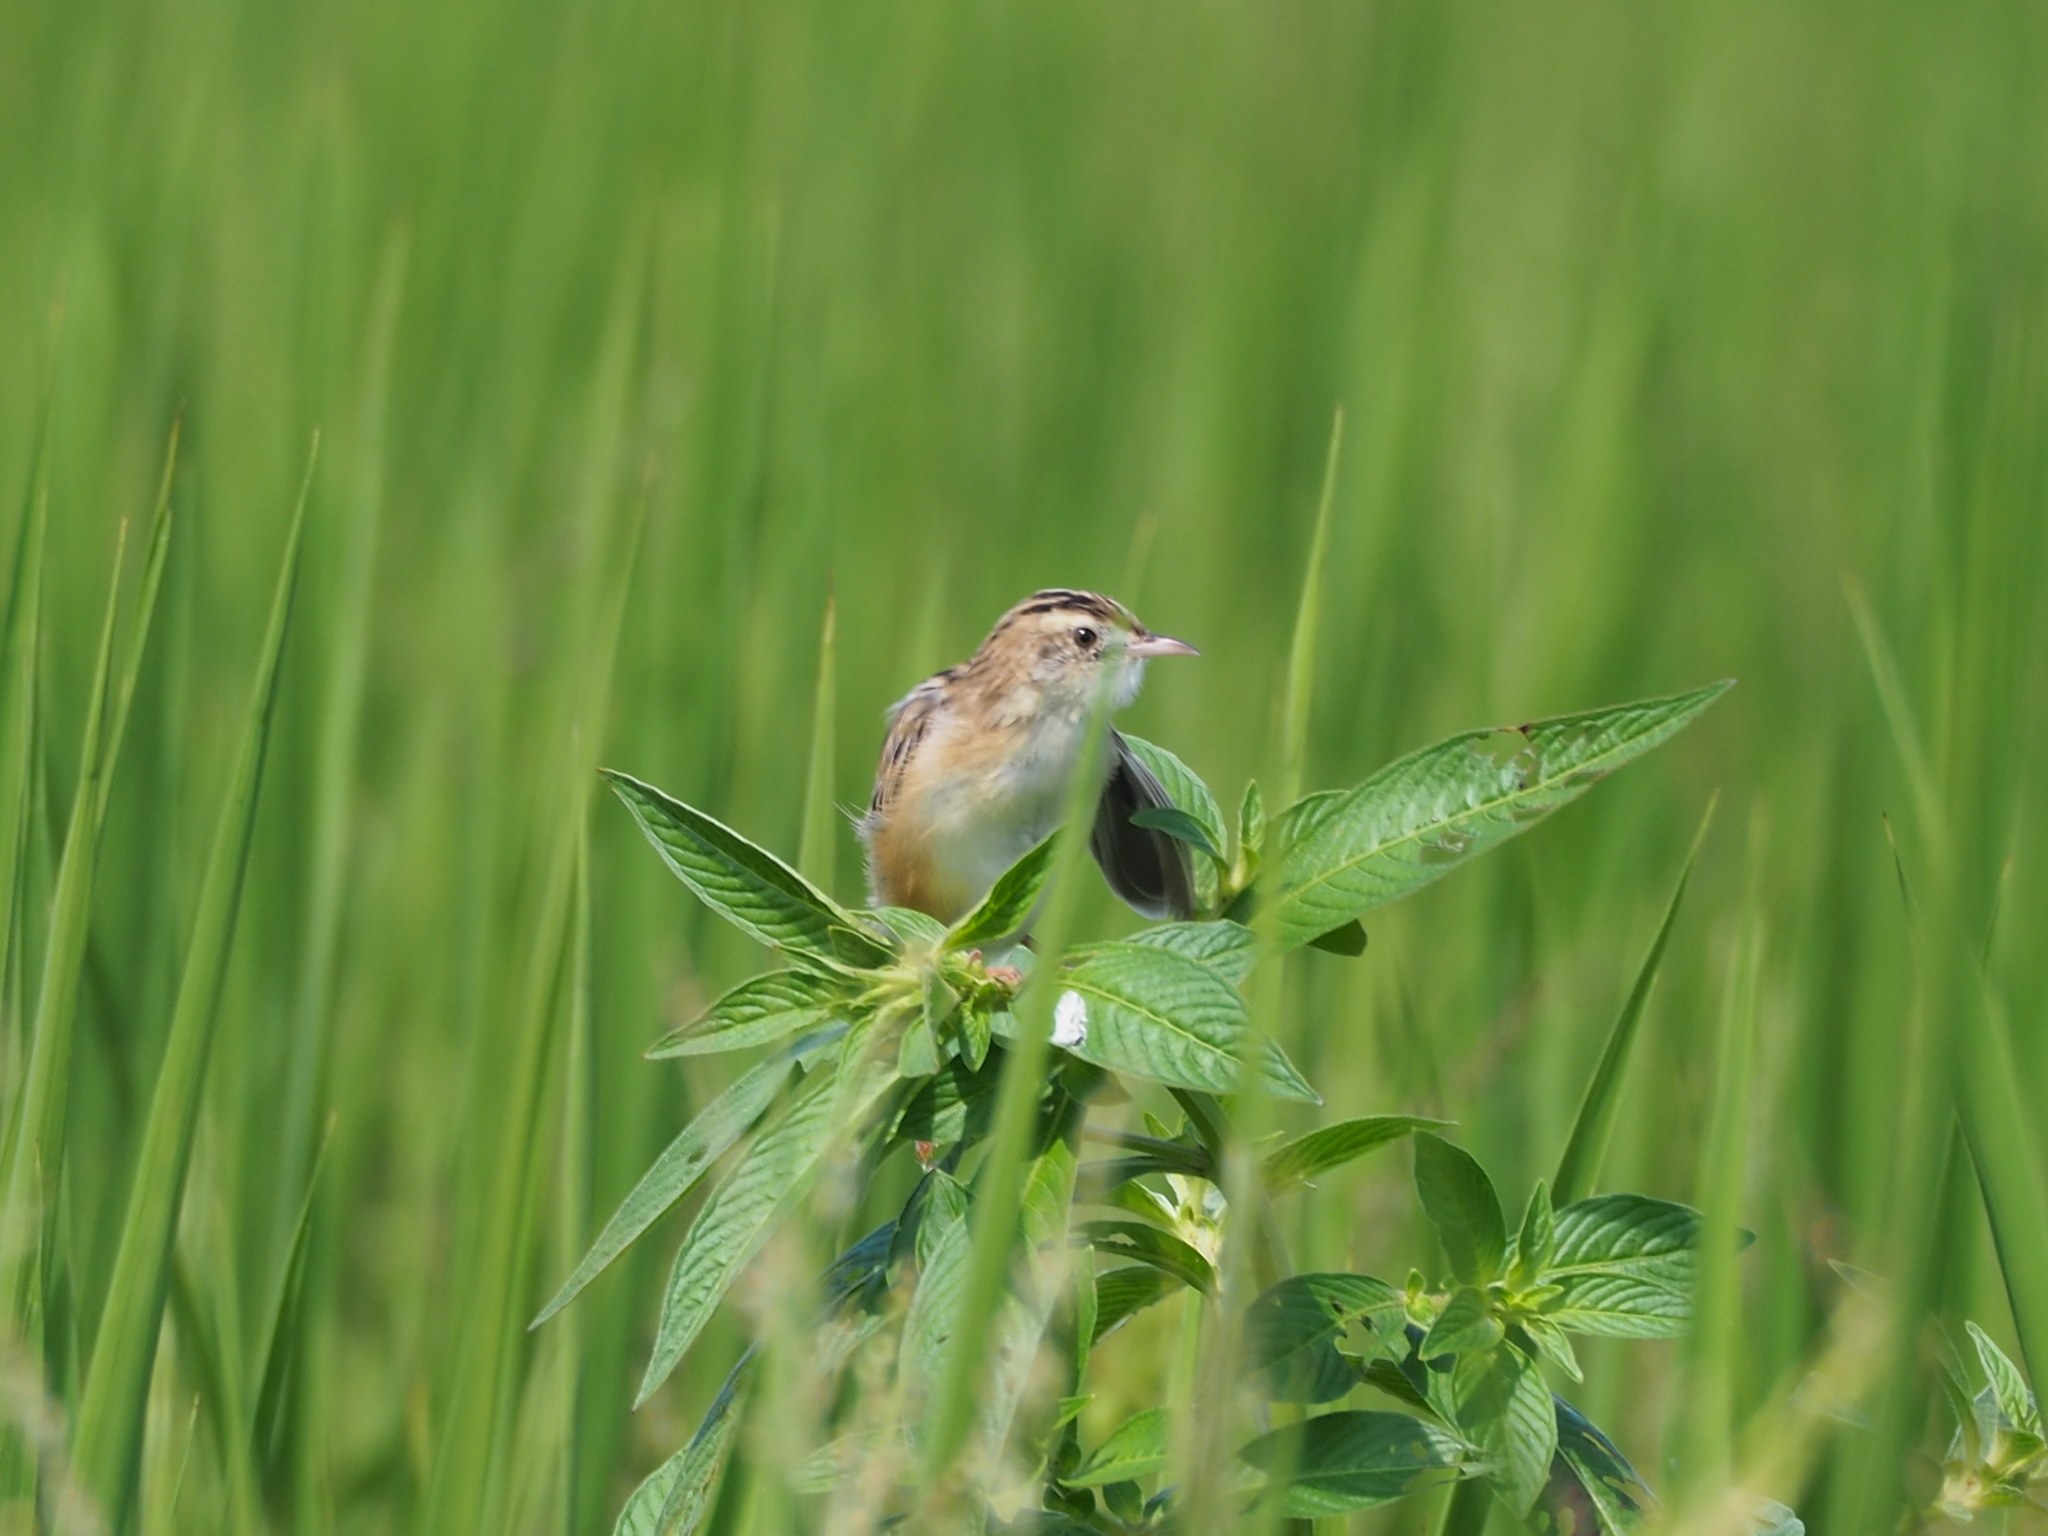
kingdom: Animalia
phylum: Chordata
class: Aves
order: Passeriformes
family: Cisticolidae
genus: Cisticola
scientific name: Cisticola juncidis
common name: Zitting cisticola
